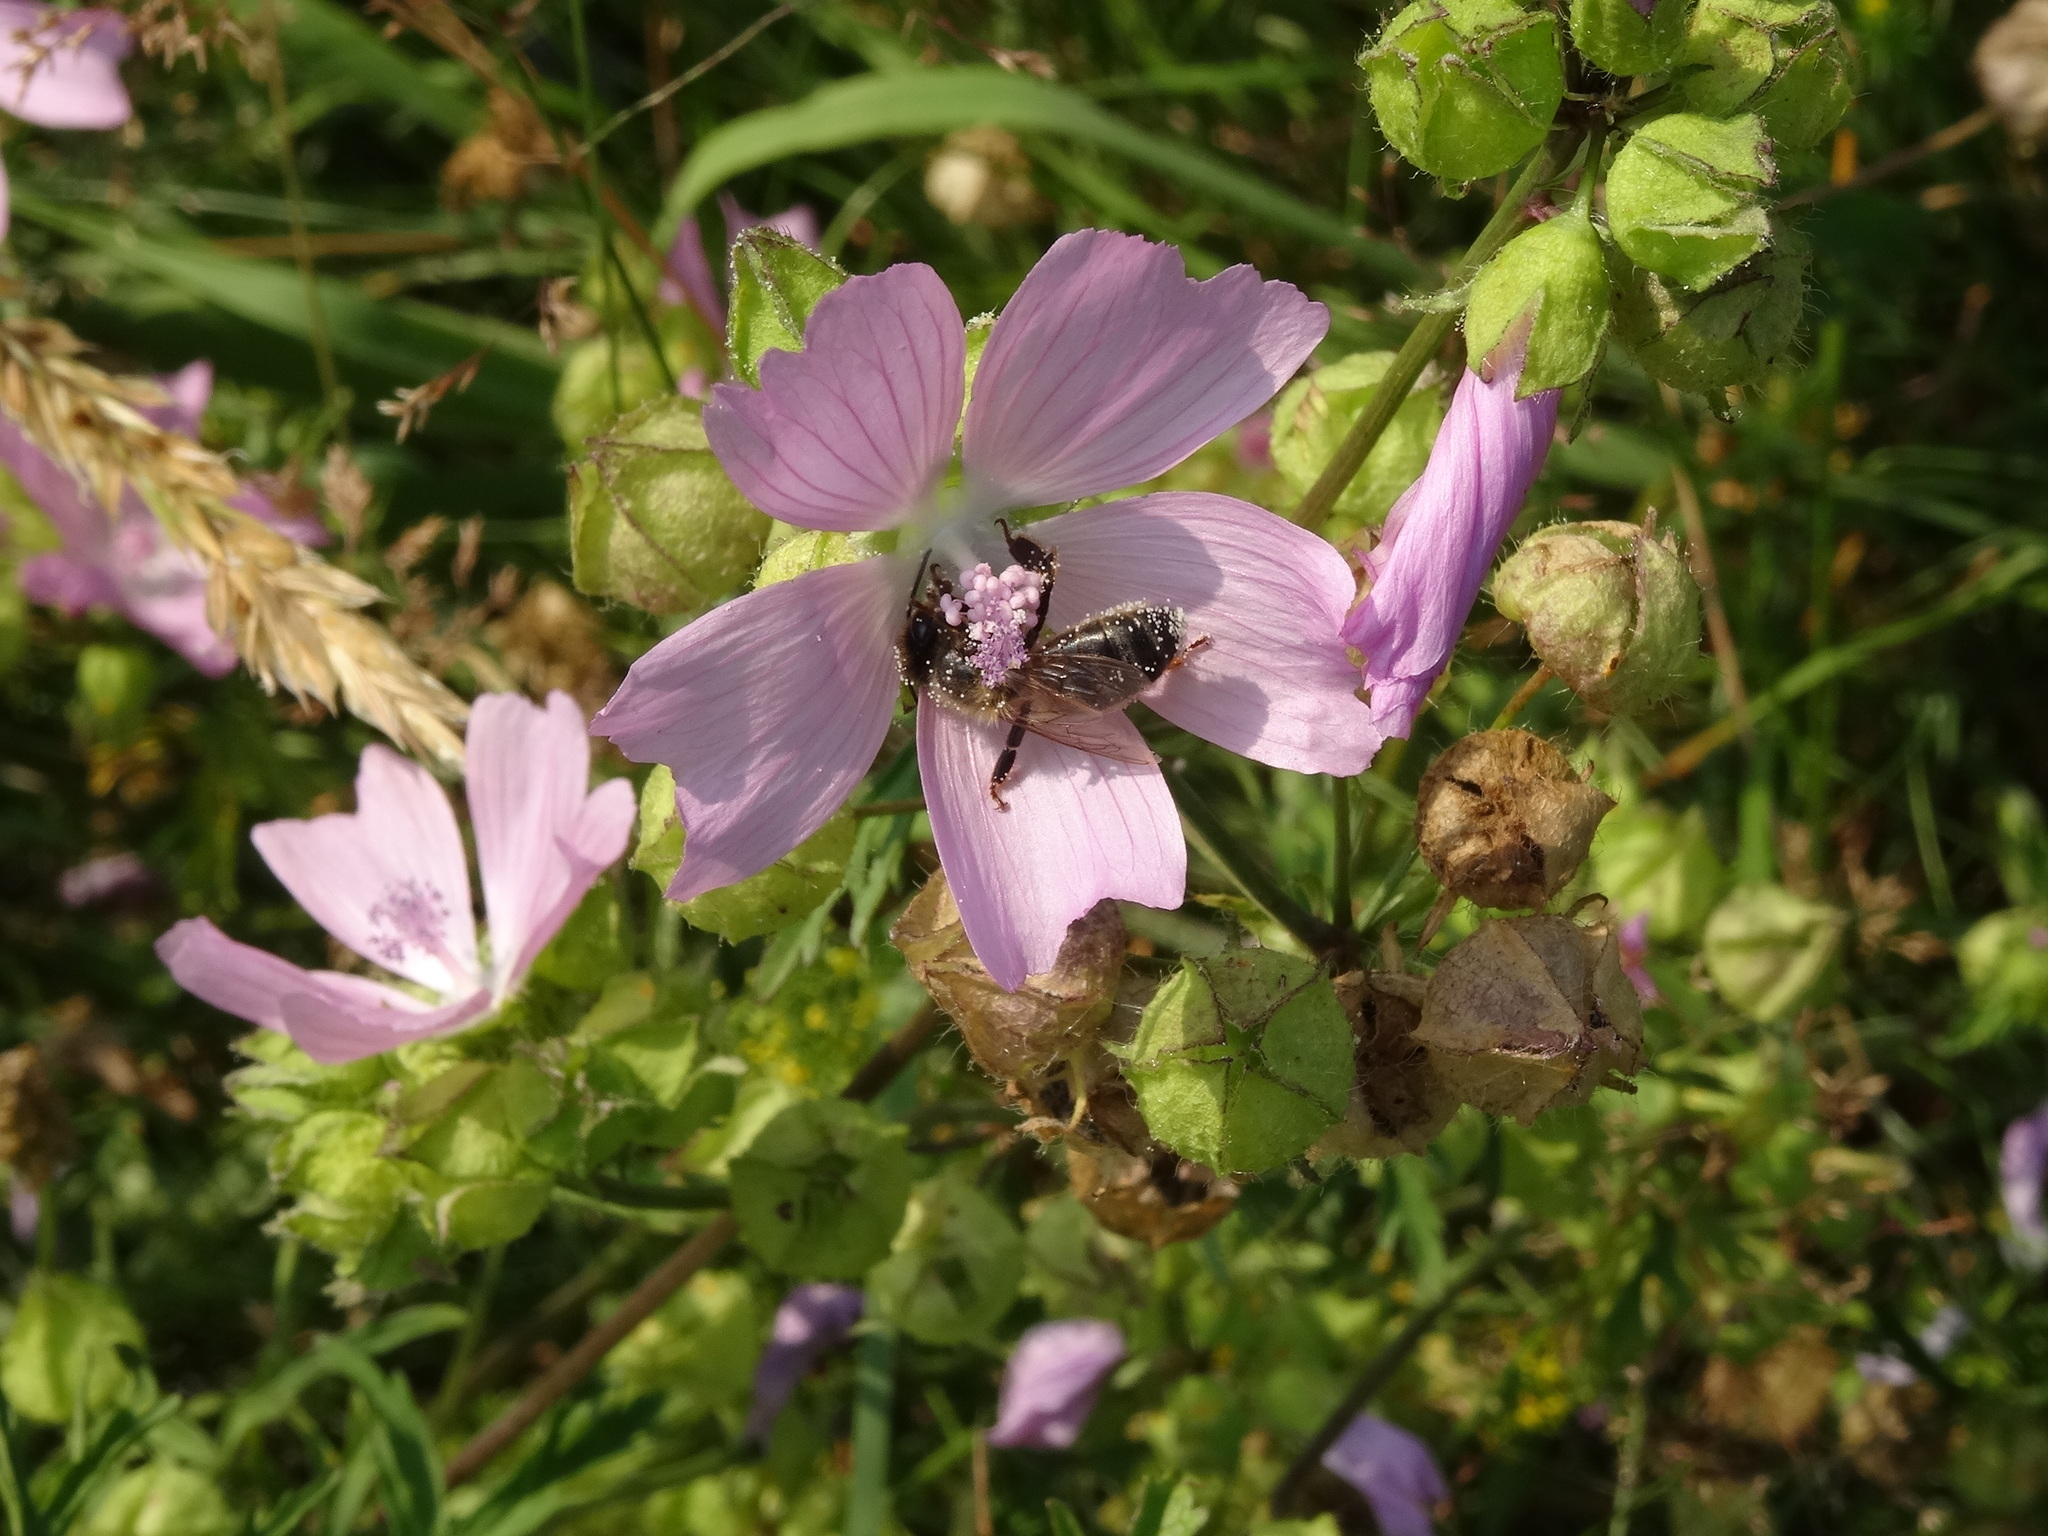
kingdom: Plantae
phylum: Tracheophyta
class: Magnoliopsida
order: Malvales
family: Malvaceae
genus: Malva
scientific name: Malva moschata
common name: Musk mallow
